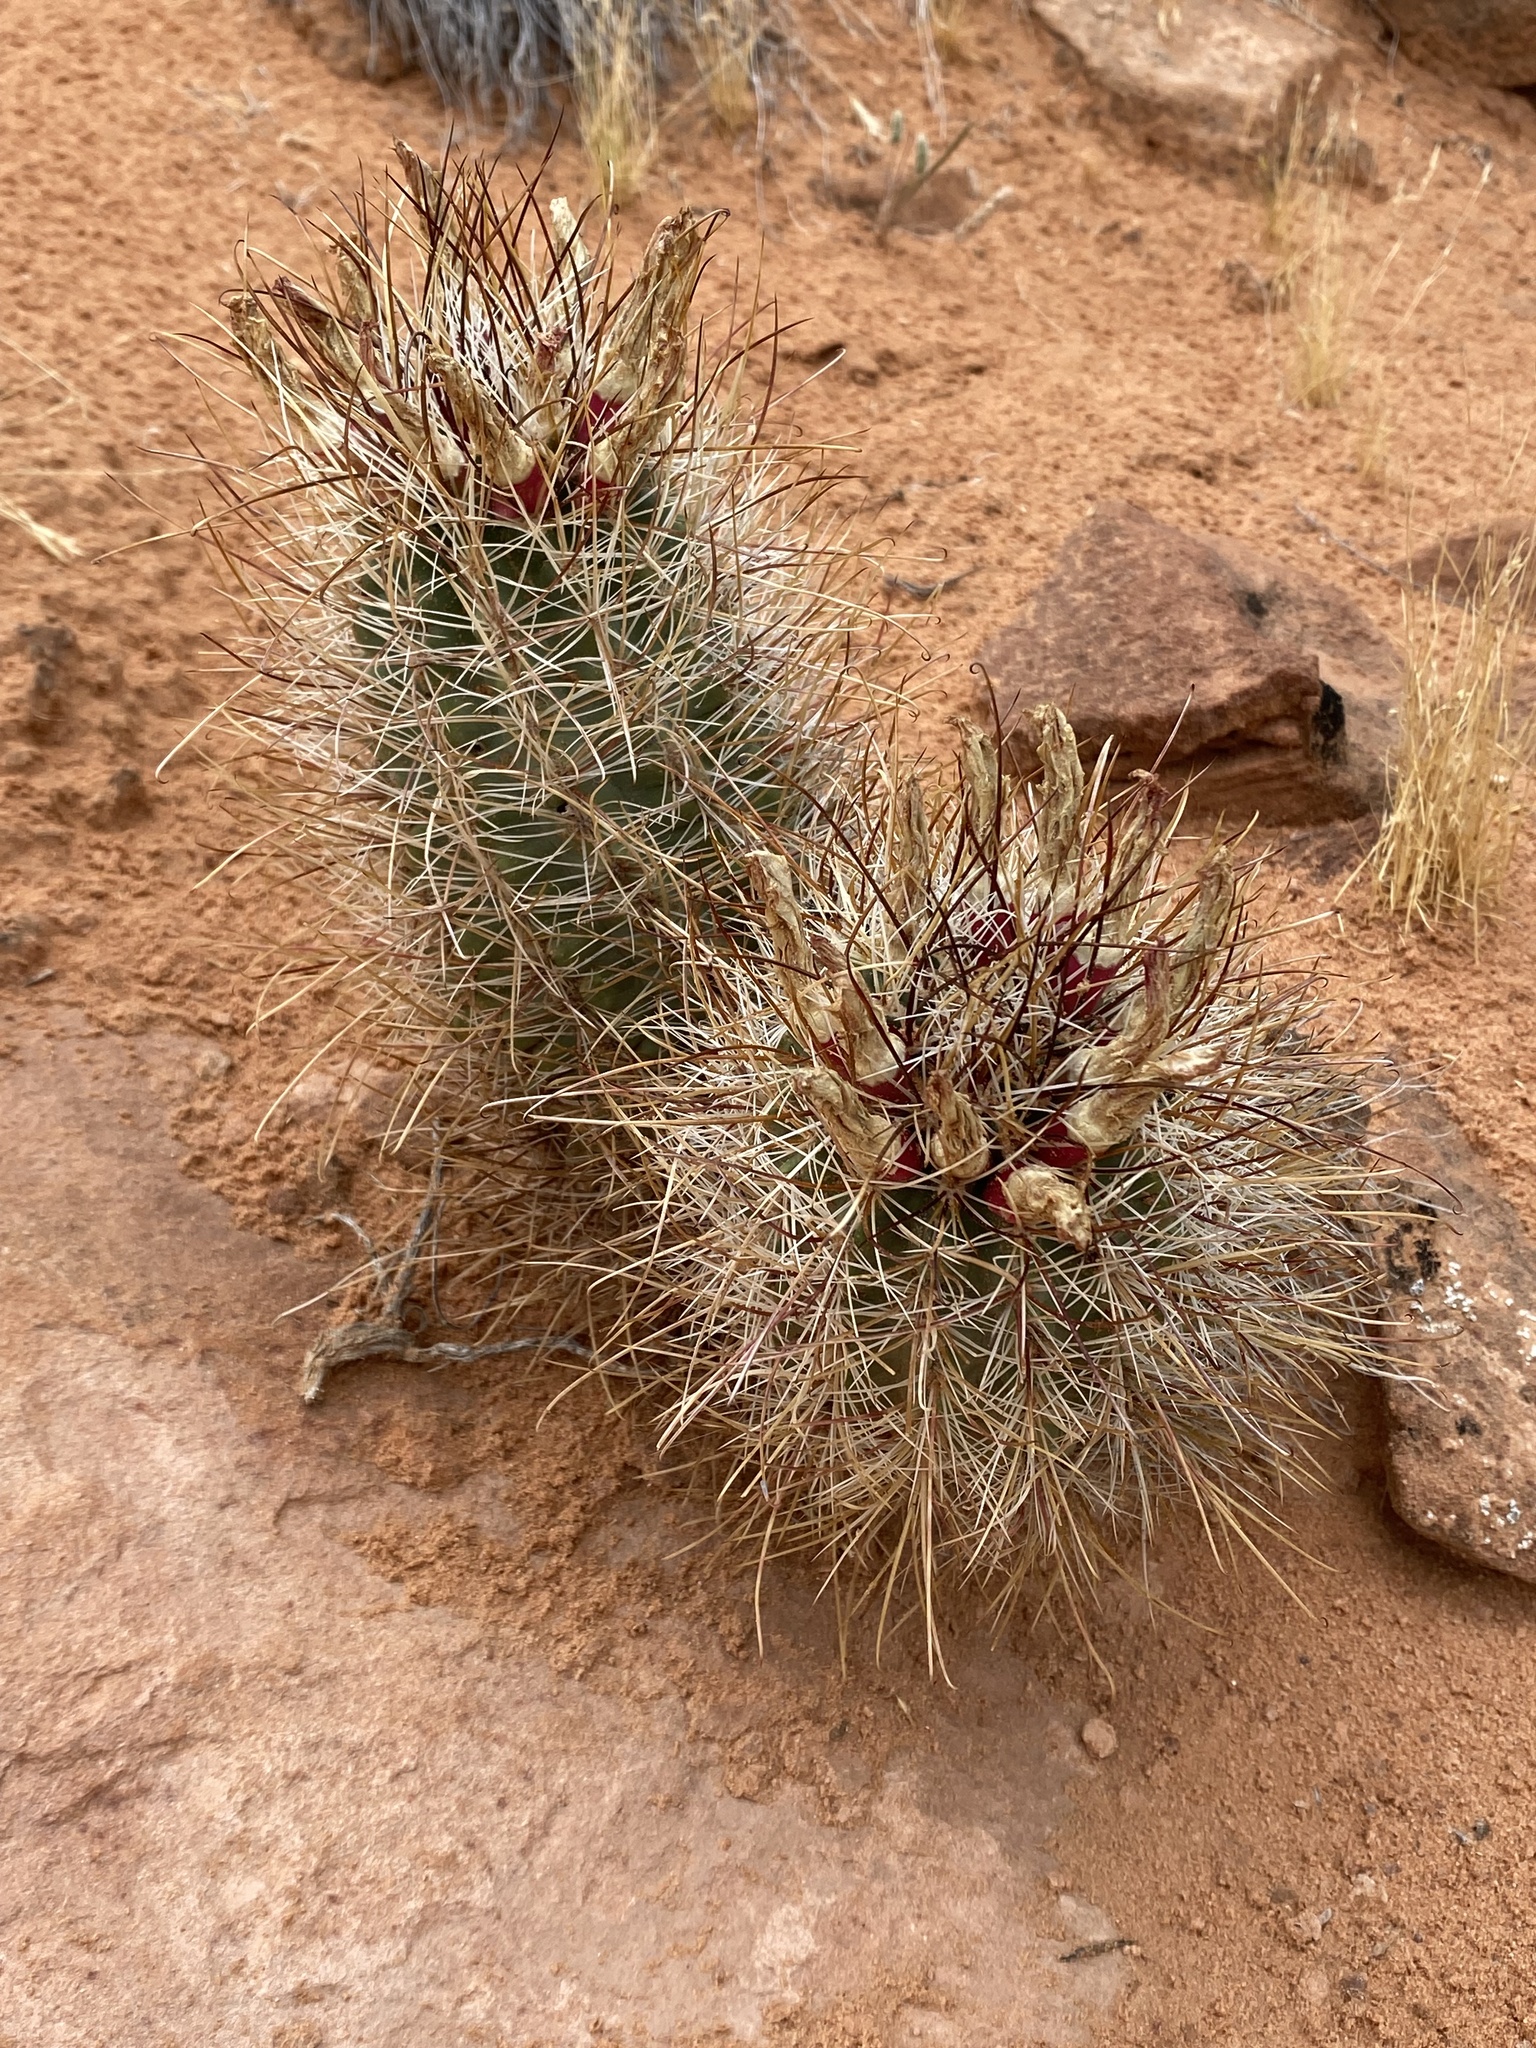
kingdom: Plantae
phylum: Tracheophyta
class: Magnoliopsida
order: Caryophyllales
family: Cactaceae
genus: Sclerocactus
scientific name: Sclerocactus parviflorus
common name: Small-flower fishhook cactus
